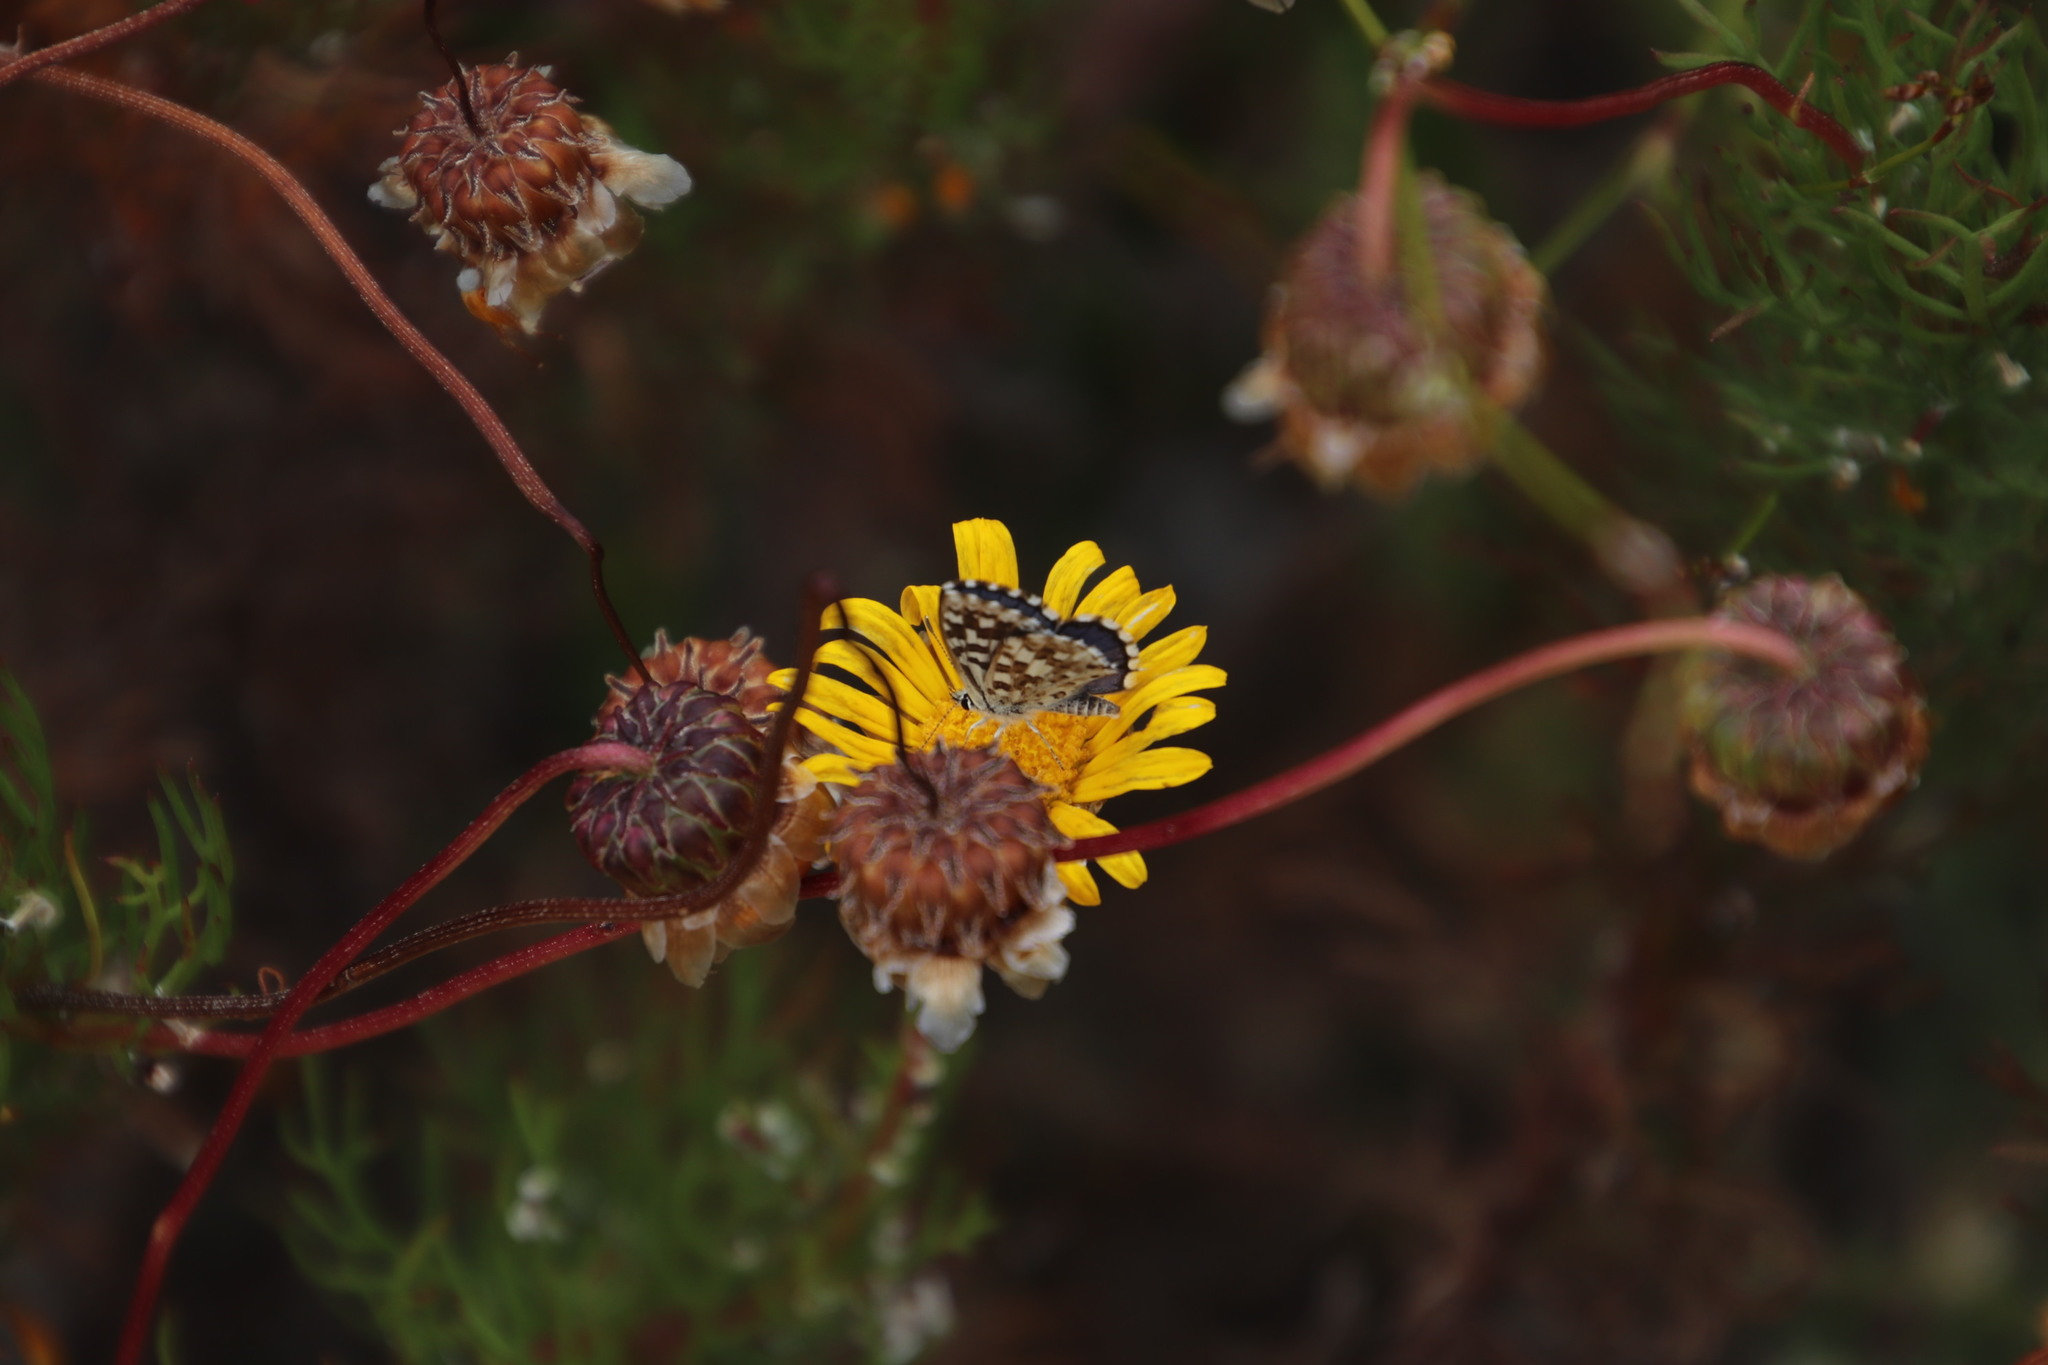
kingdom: Animalia
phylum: Arthropoda
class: Insecta
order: Lepidoptera
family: Lycaenidae
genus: Tarucus
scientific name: Tarucus thespis
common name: Vivid dotted blue
